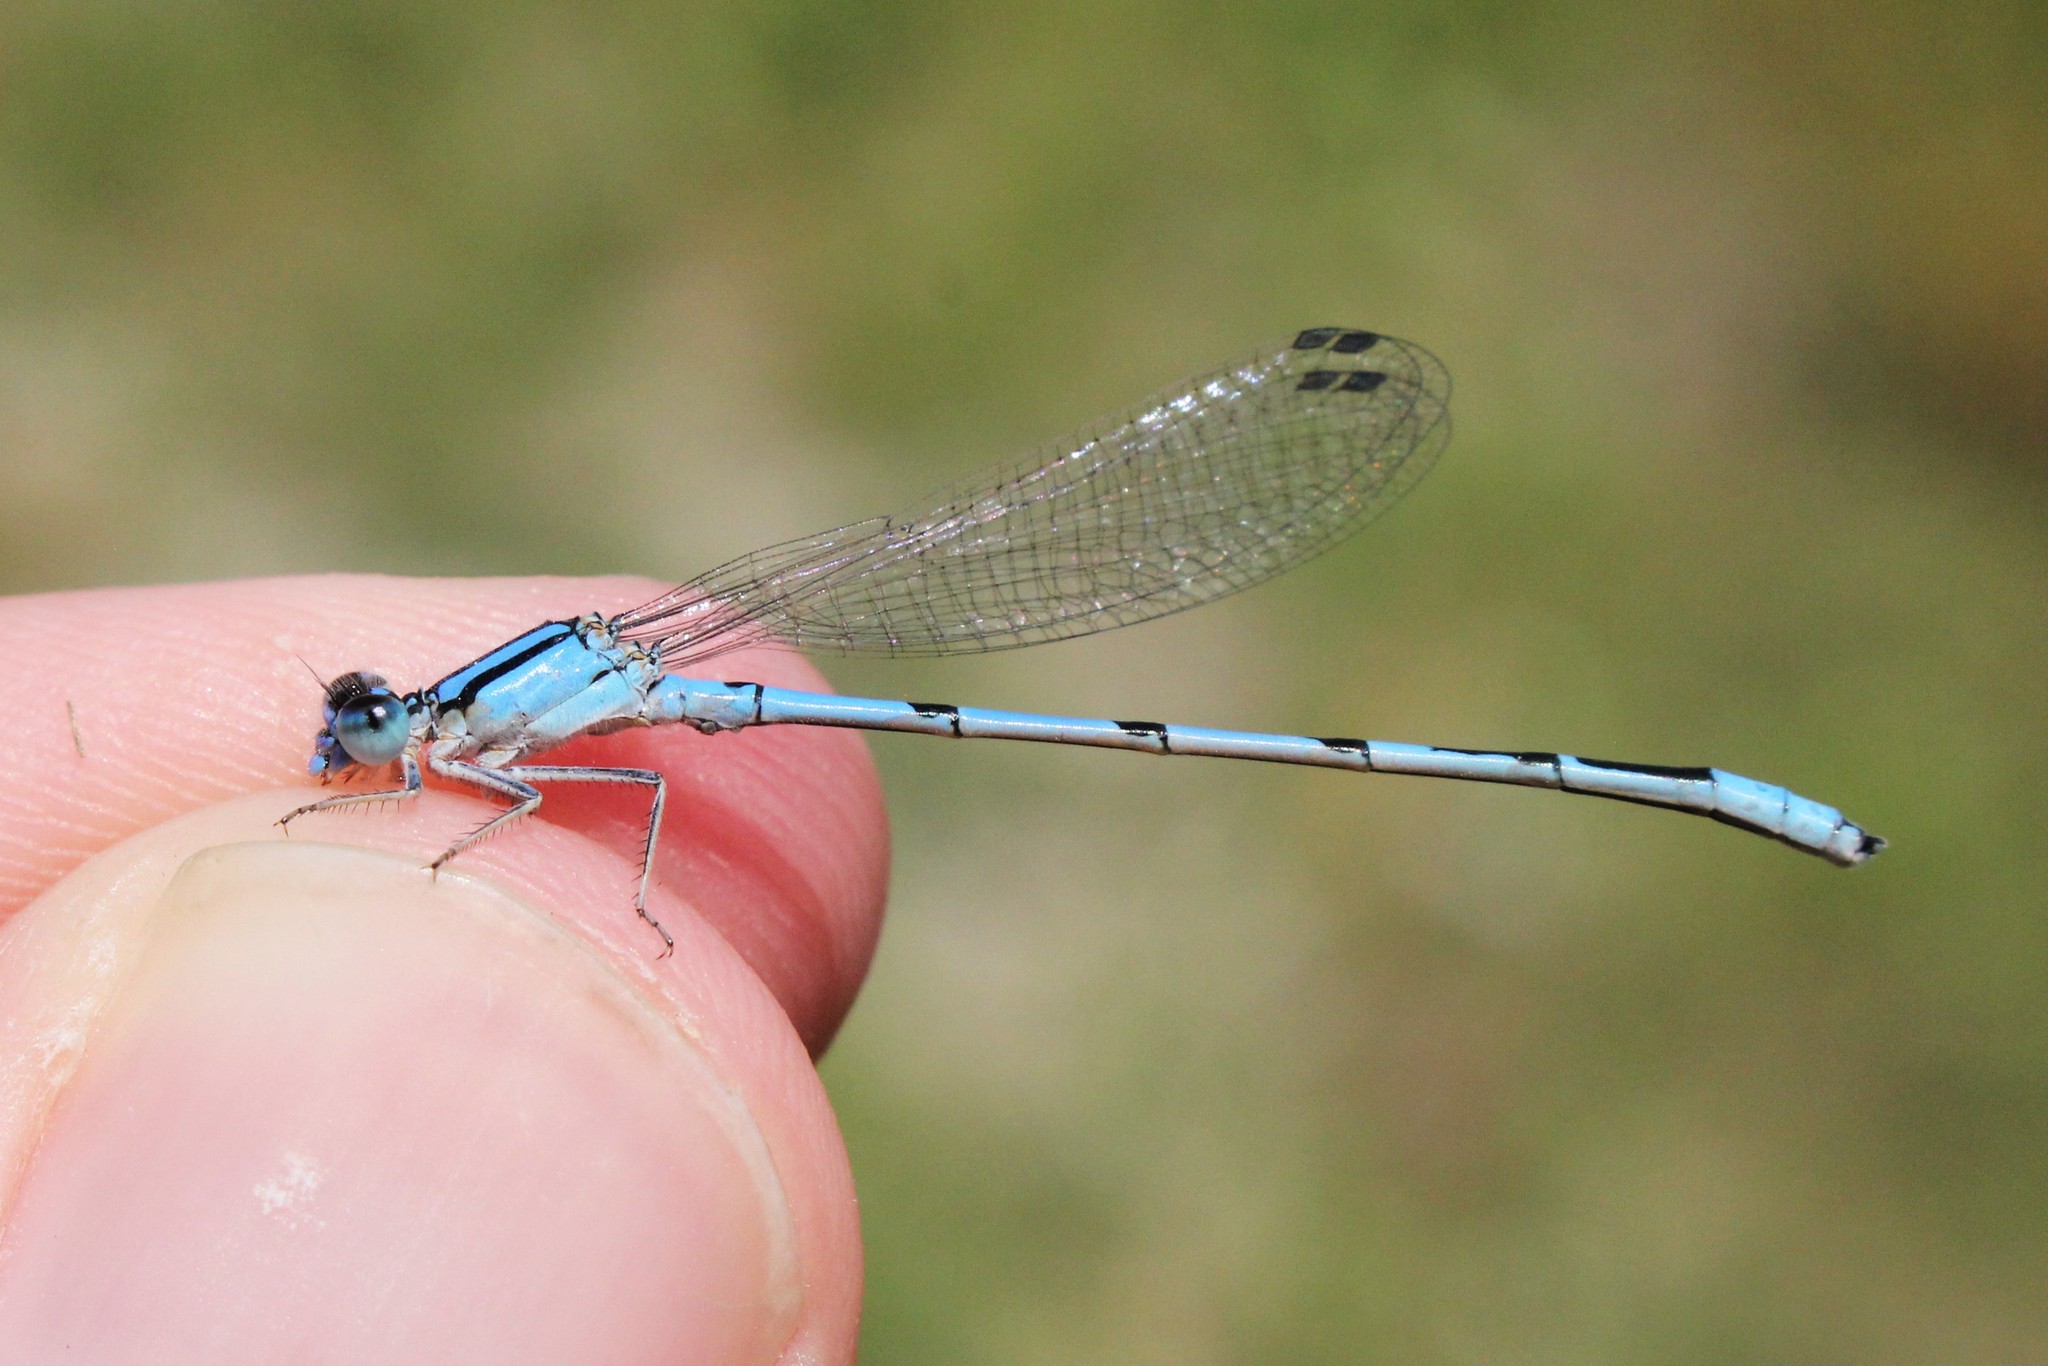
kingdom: Animalia
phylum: Arthropoda
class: Insecta
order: Odonata
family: Coenagrionidae
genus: Enallagma
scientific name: Enallagma civile
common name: Damselfly
